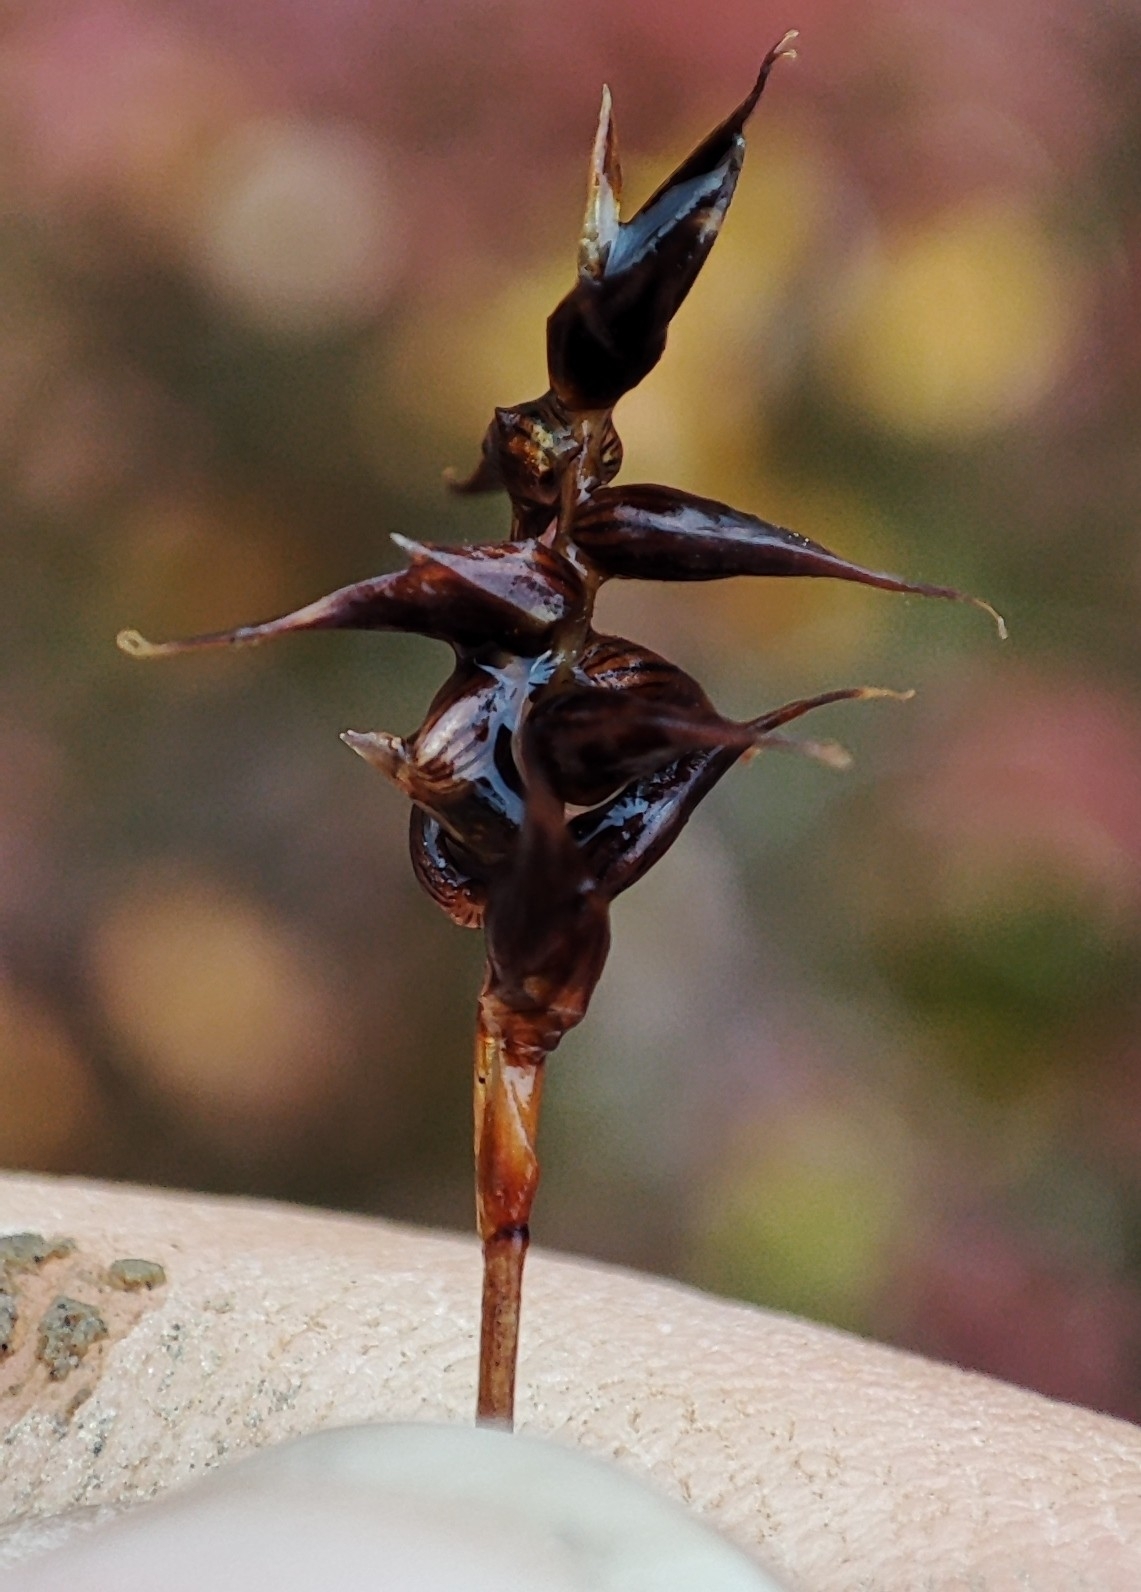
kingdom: Plantae
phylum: Tracheophyta
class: Liliopsida
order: Poales
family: Cyperaceae
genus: Carex
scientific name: Carex parallela
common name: Parallel sedge
